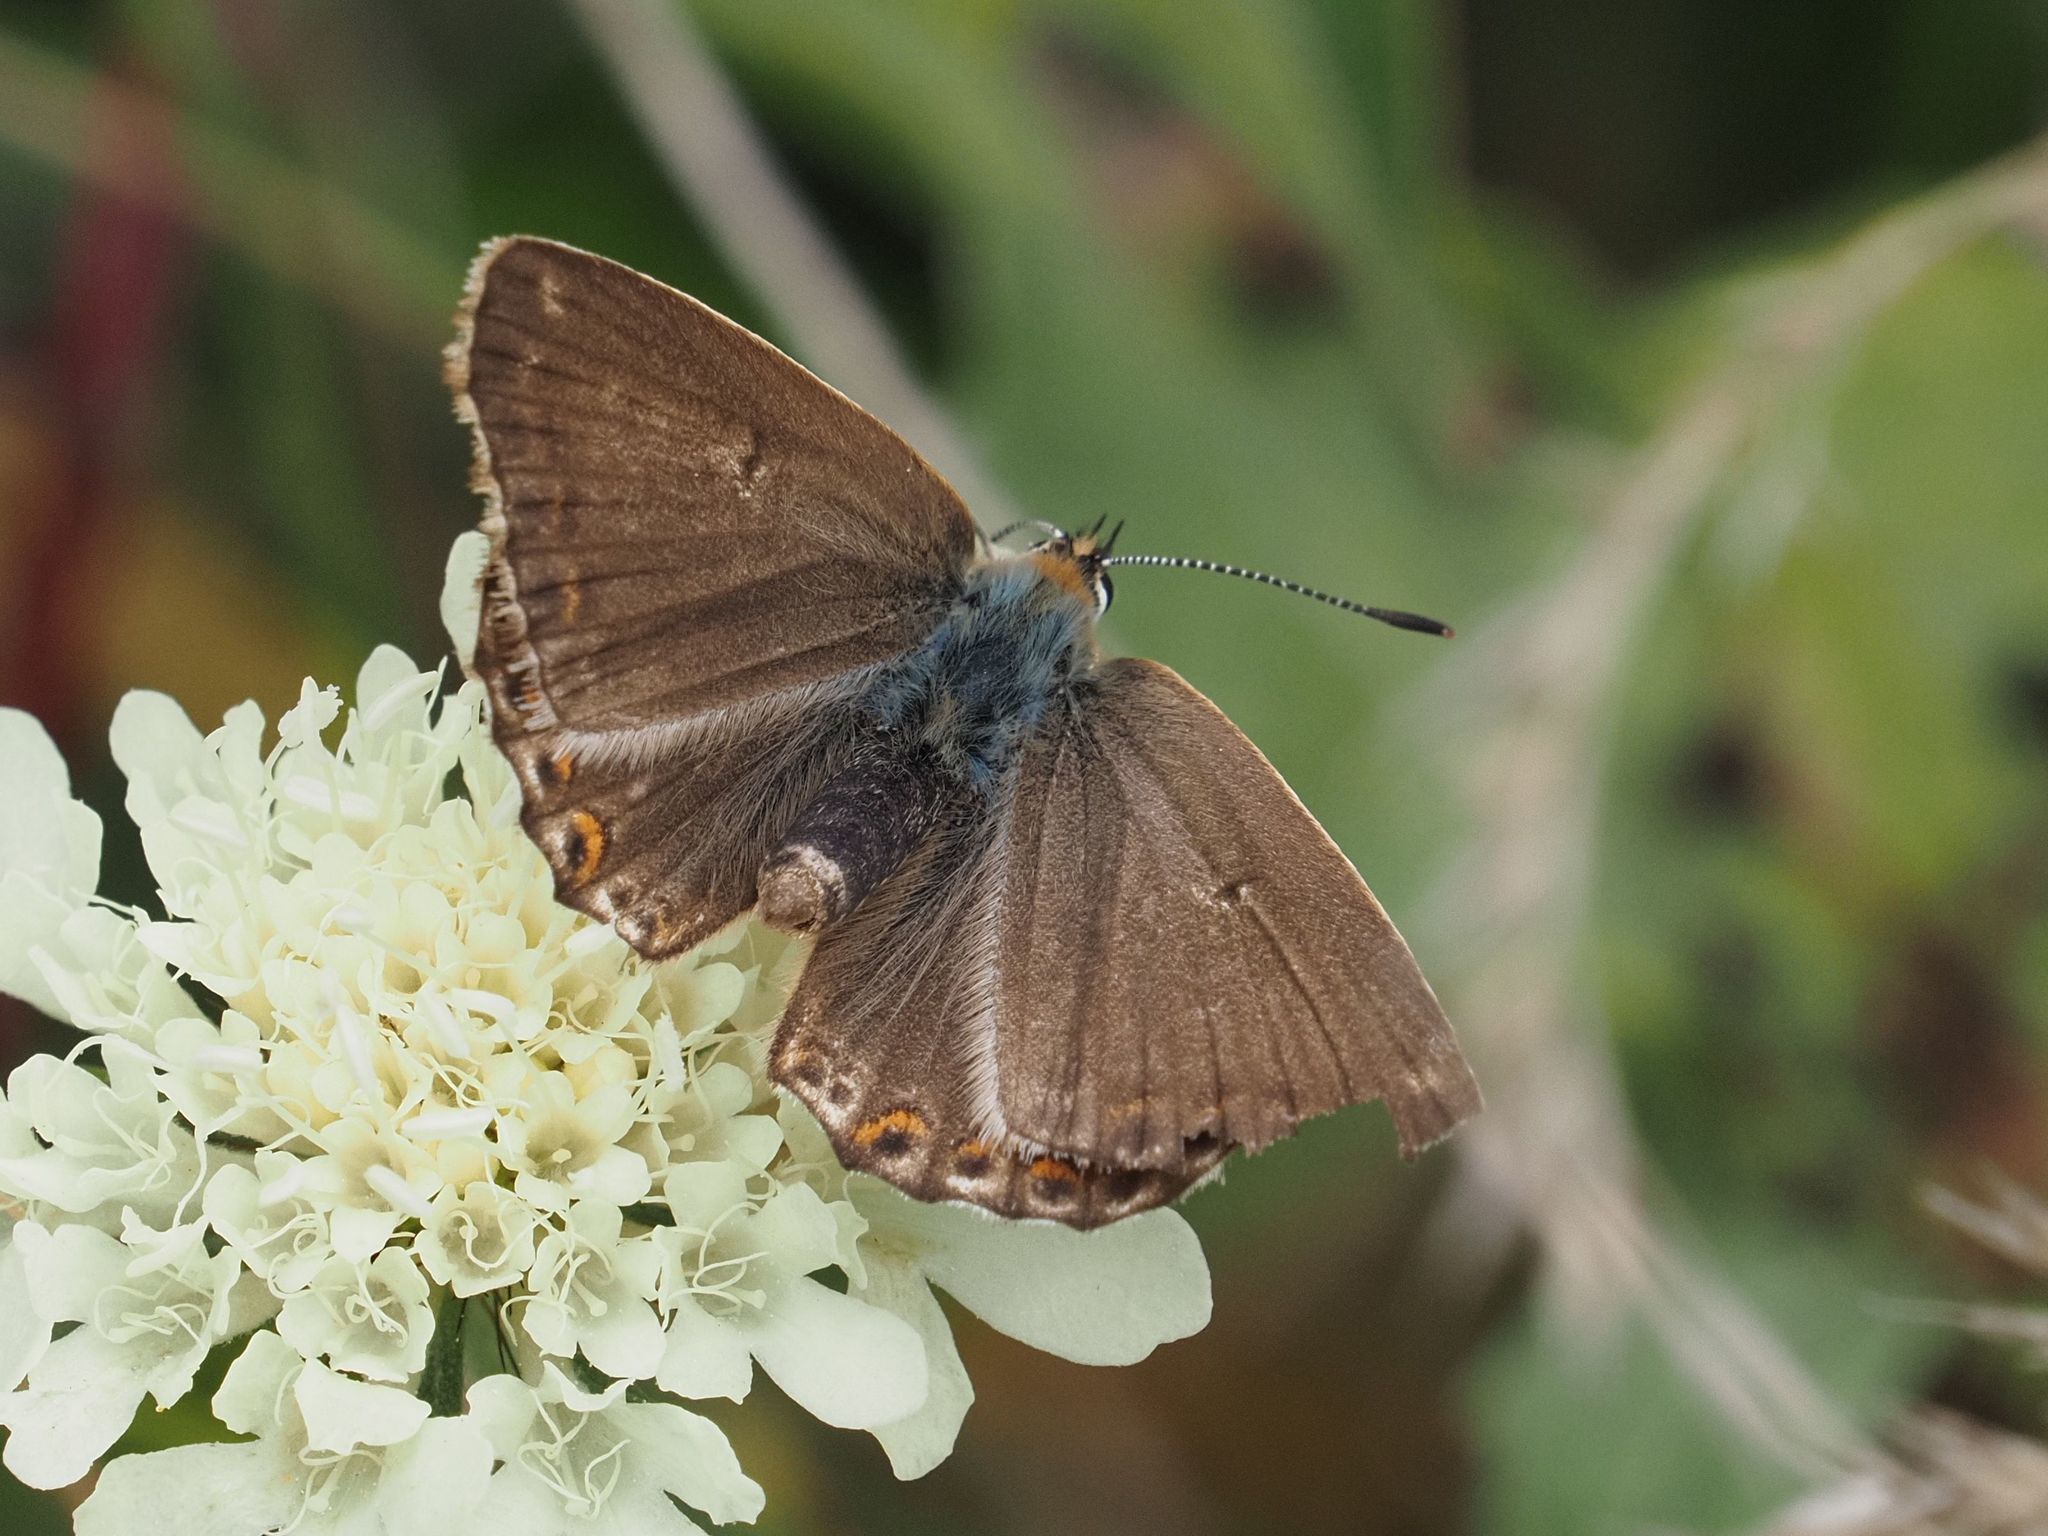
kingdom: Animalia
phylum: Arthropoda
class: Insecta
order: Lepidoptera
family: Lycaenidae
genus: Lysandra
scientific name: Lysandra coridon
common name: Chalkhill blue
